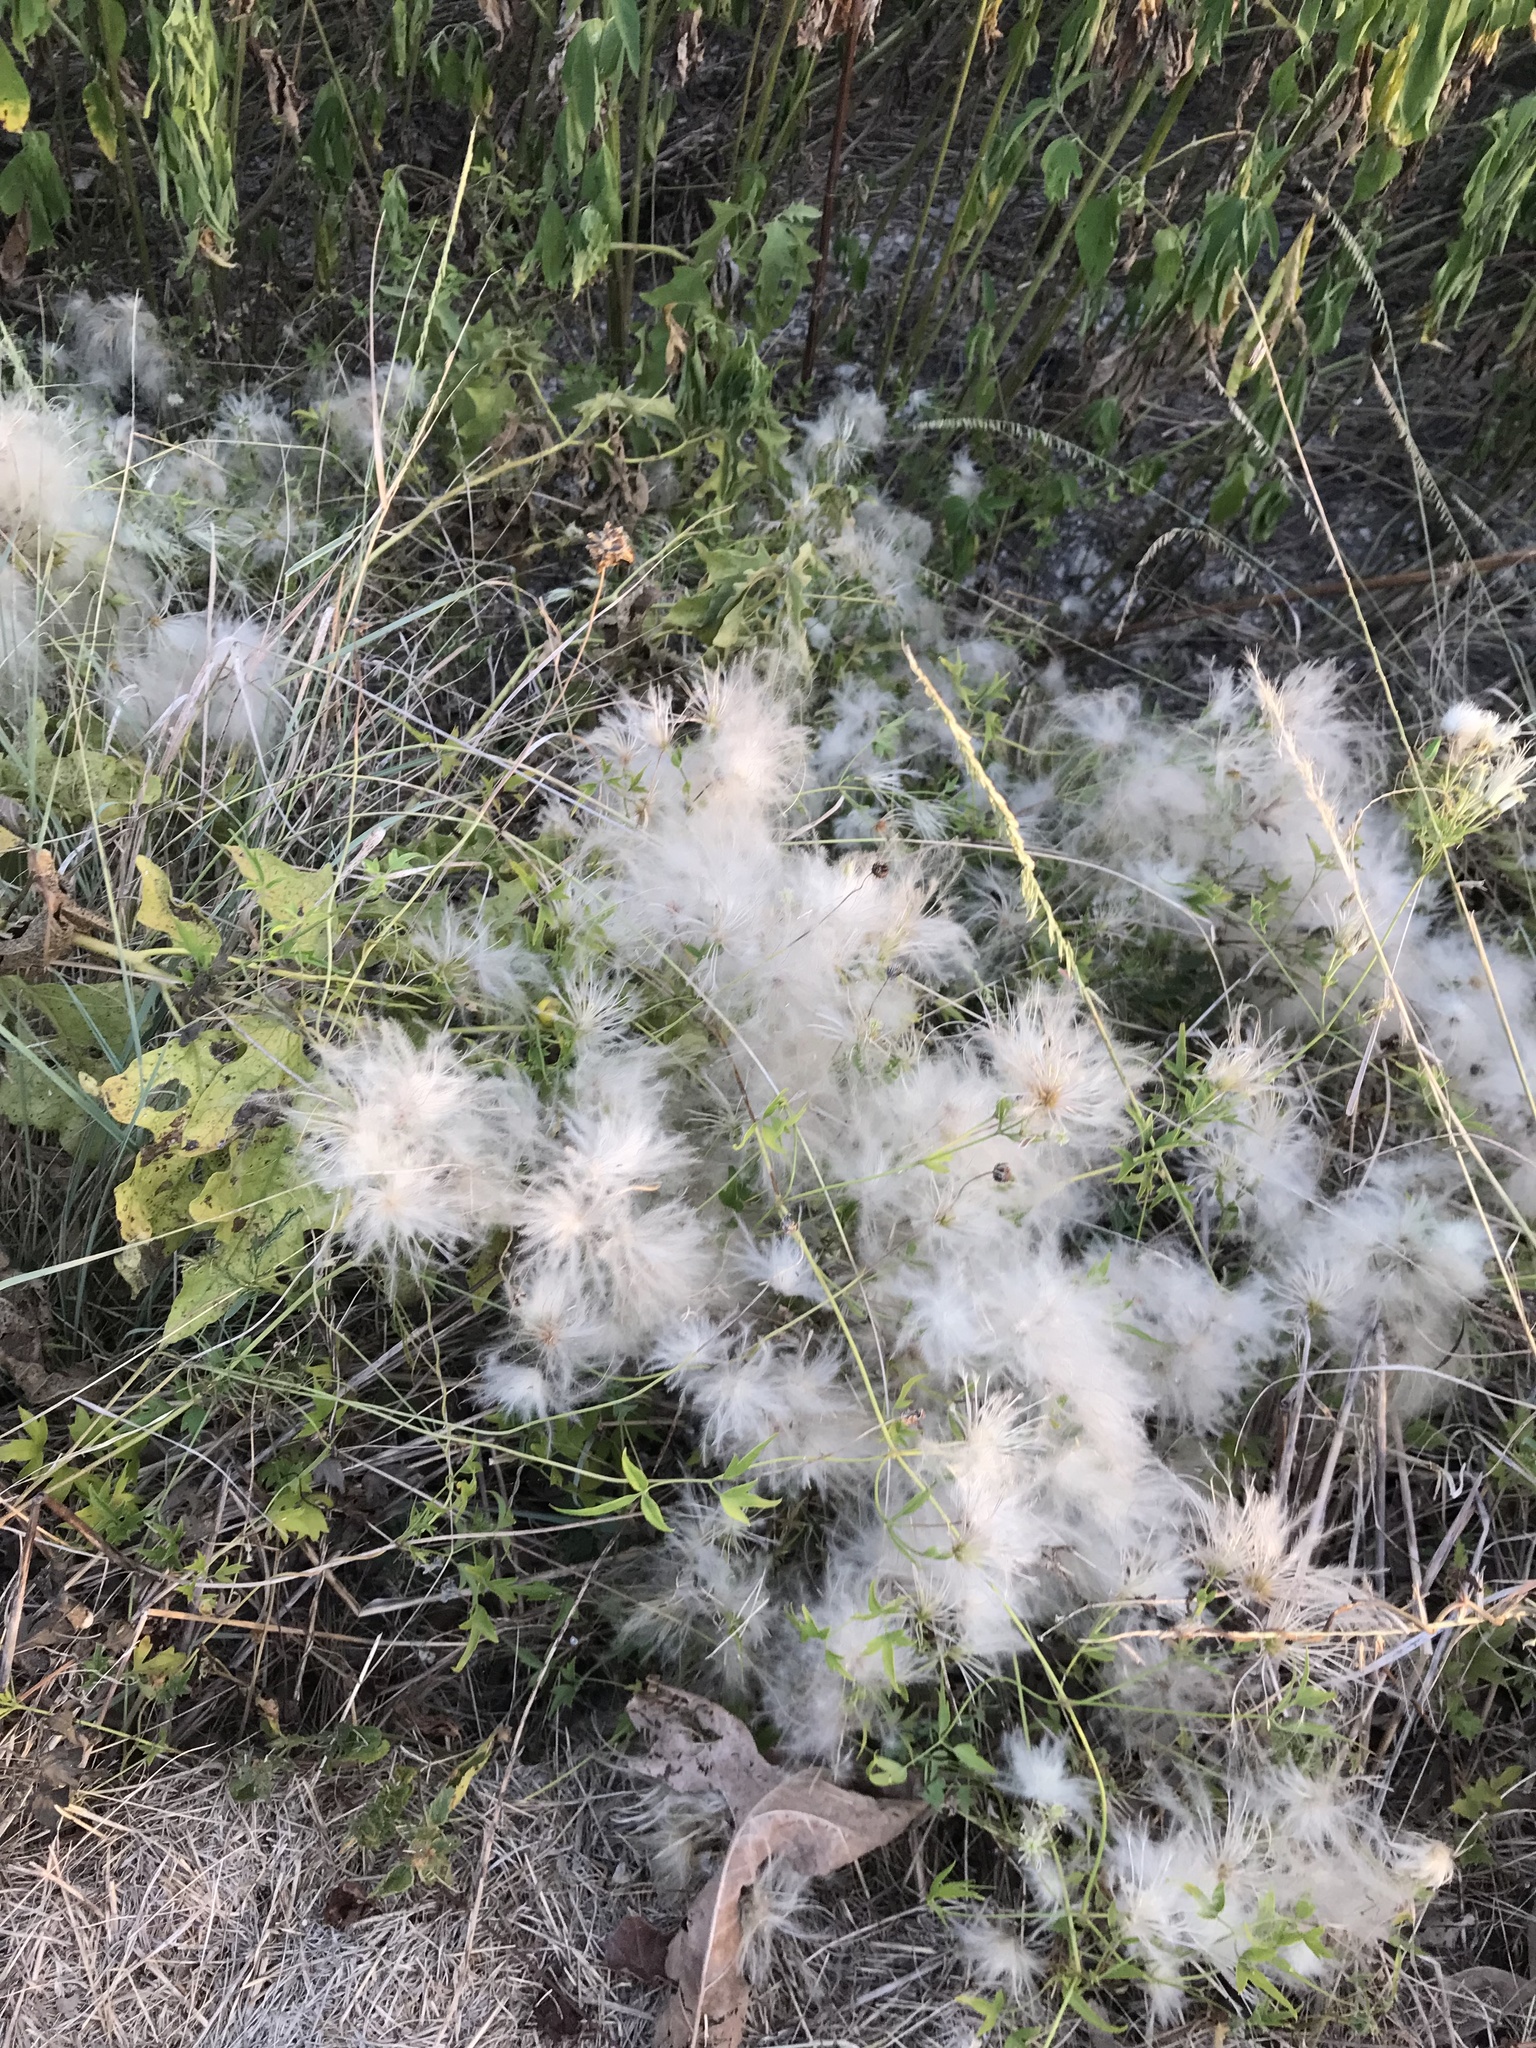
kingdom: Plantae
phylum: Tracheophyta
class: Magnoliopsida
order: Ranunculales
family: Ranunculaceae
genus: Clematis
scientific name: Clematis drummondii
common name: Texas virgin's bower
